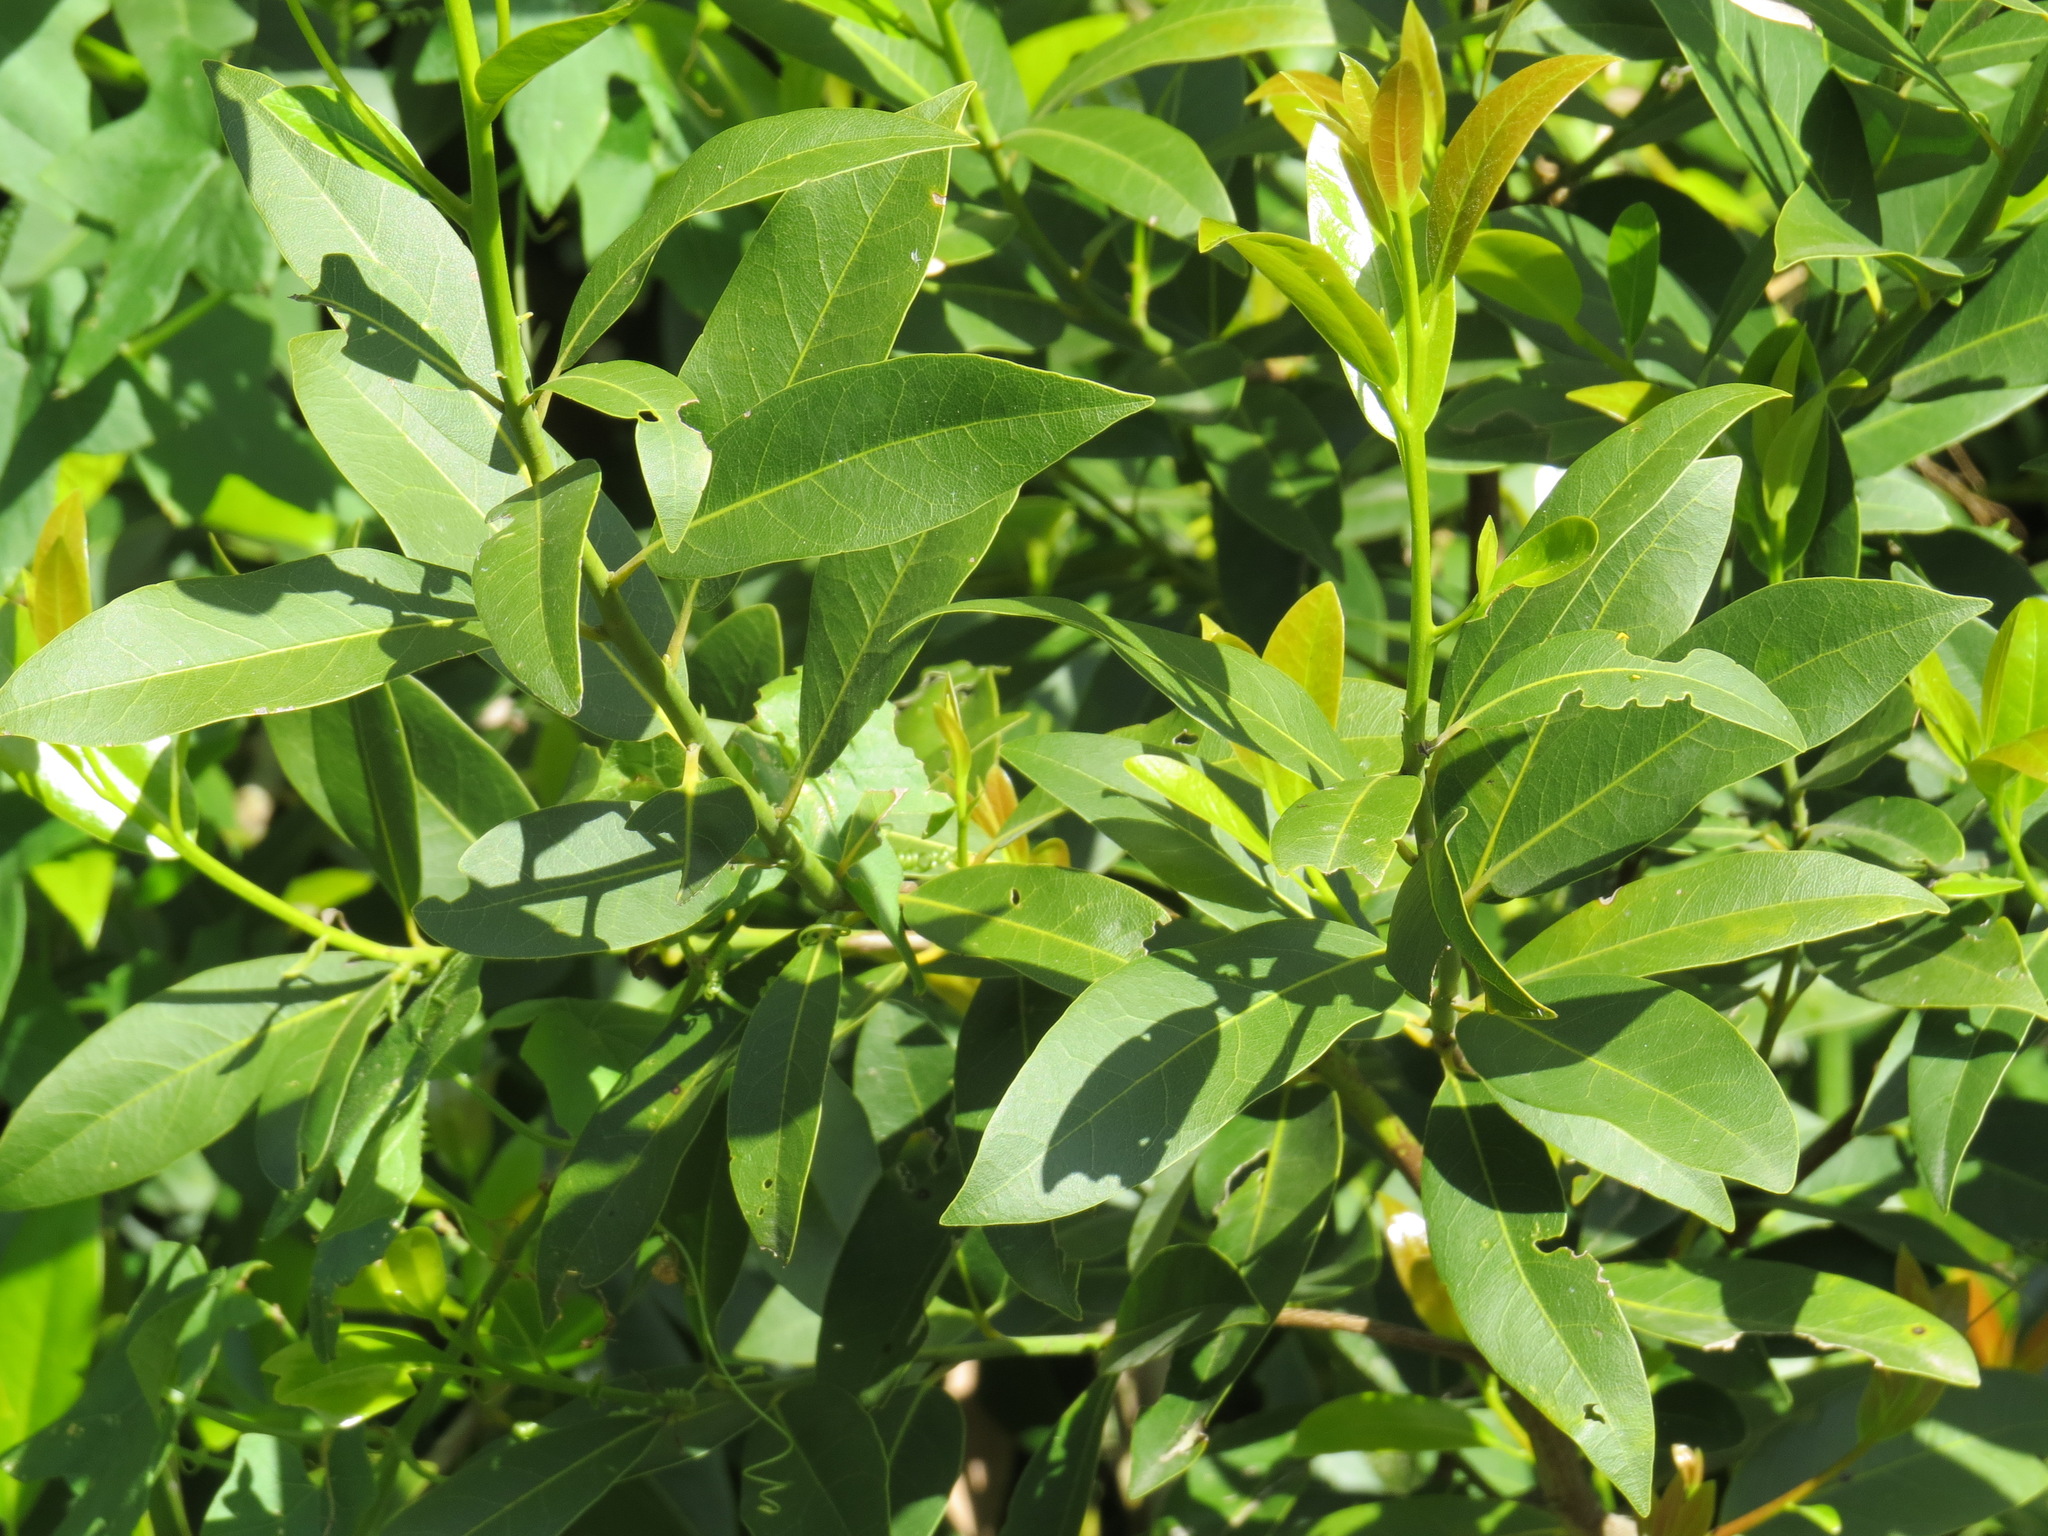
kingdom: Plantae
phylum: Tracheophyta
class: Magnoliopsida
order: Laurales
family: Lauraceae
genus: Umbellularia
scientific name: Umbellularia californica
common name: California bay
